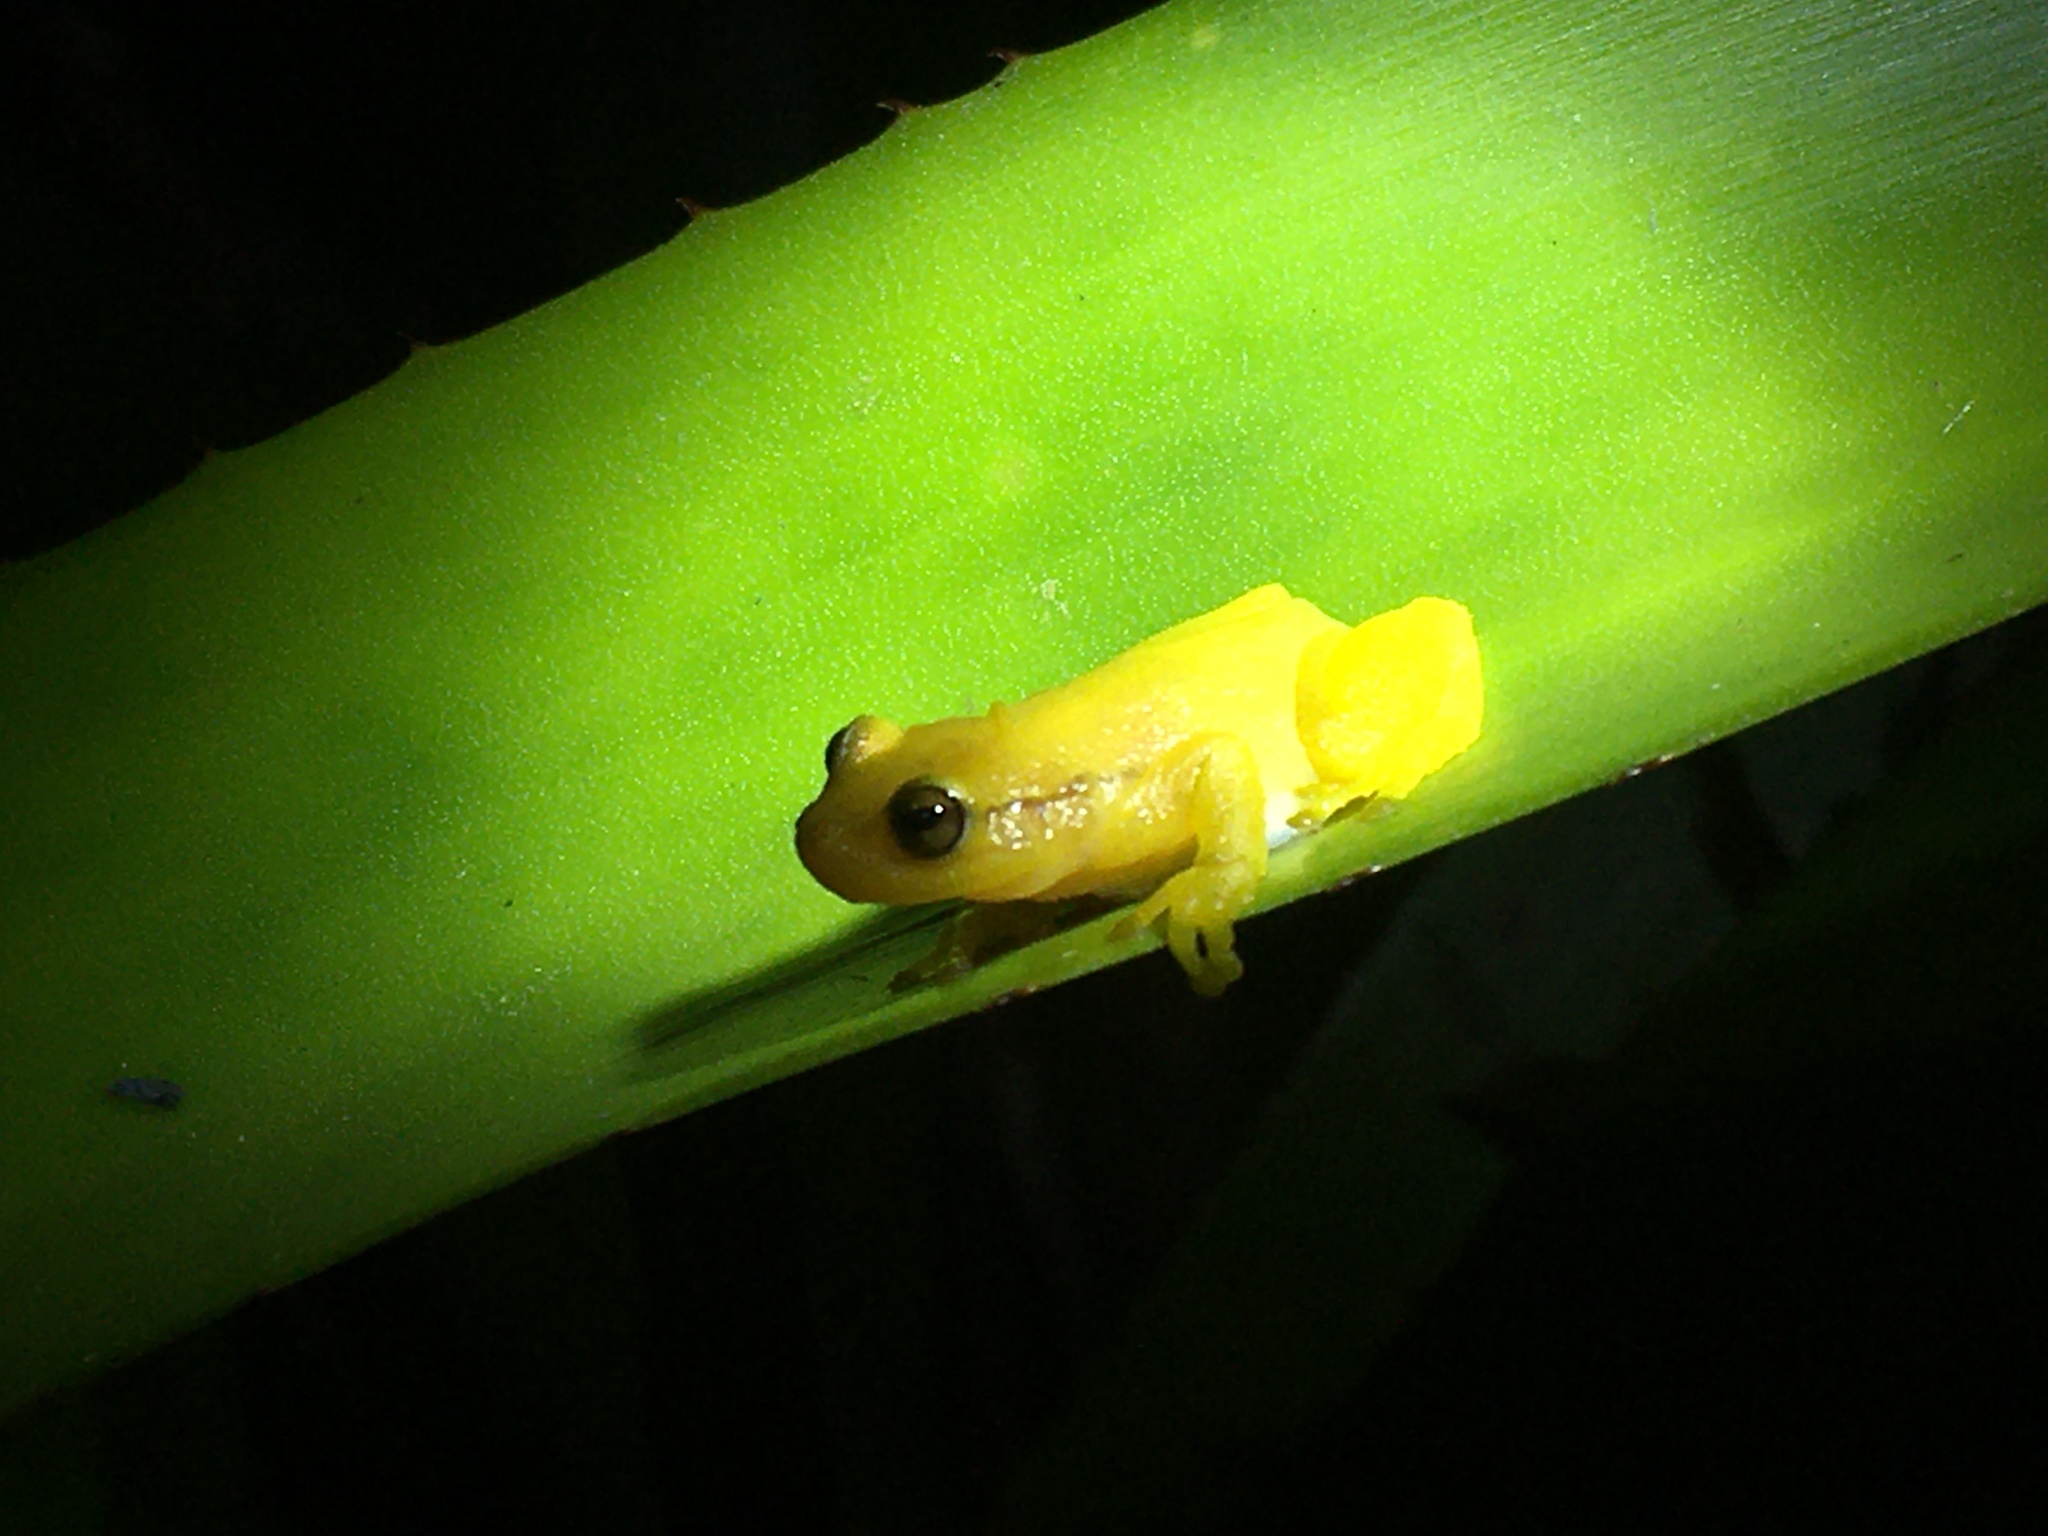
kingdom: Animalia
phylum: Chordata
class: Amphibia
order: Anura
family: Hylidae
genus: Phyllodytes
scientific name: Phyllodytes edelmoi
